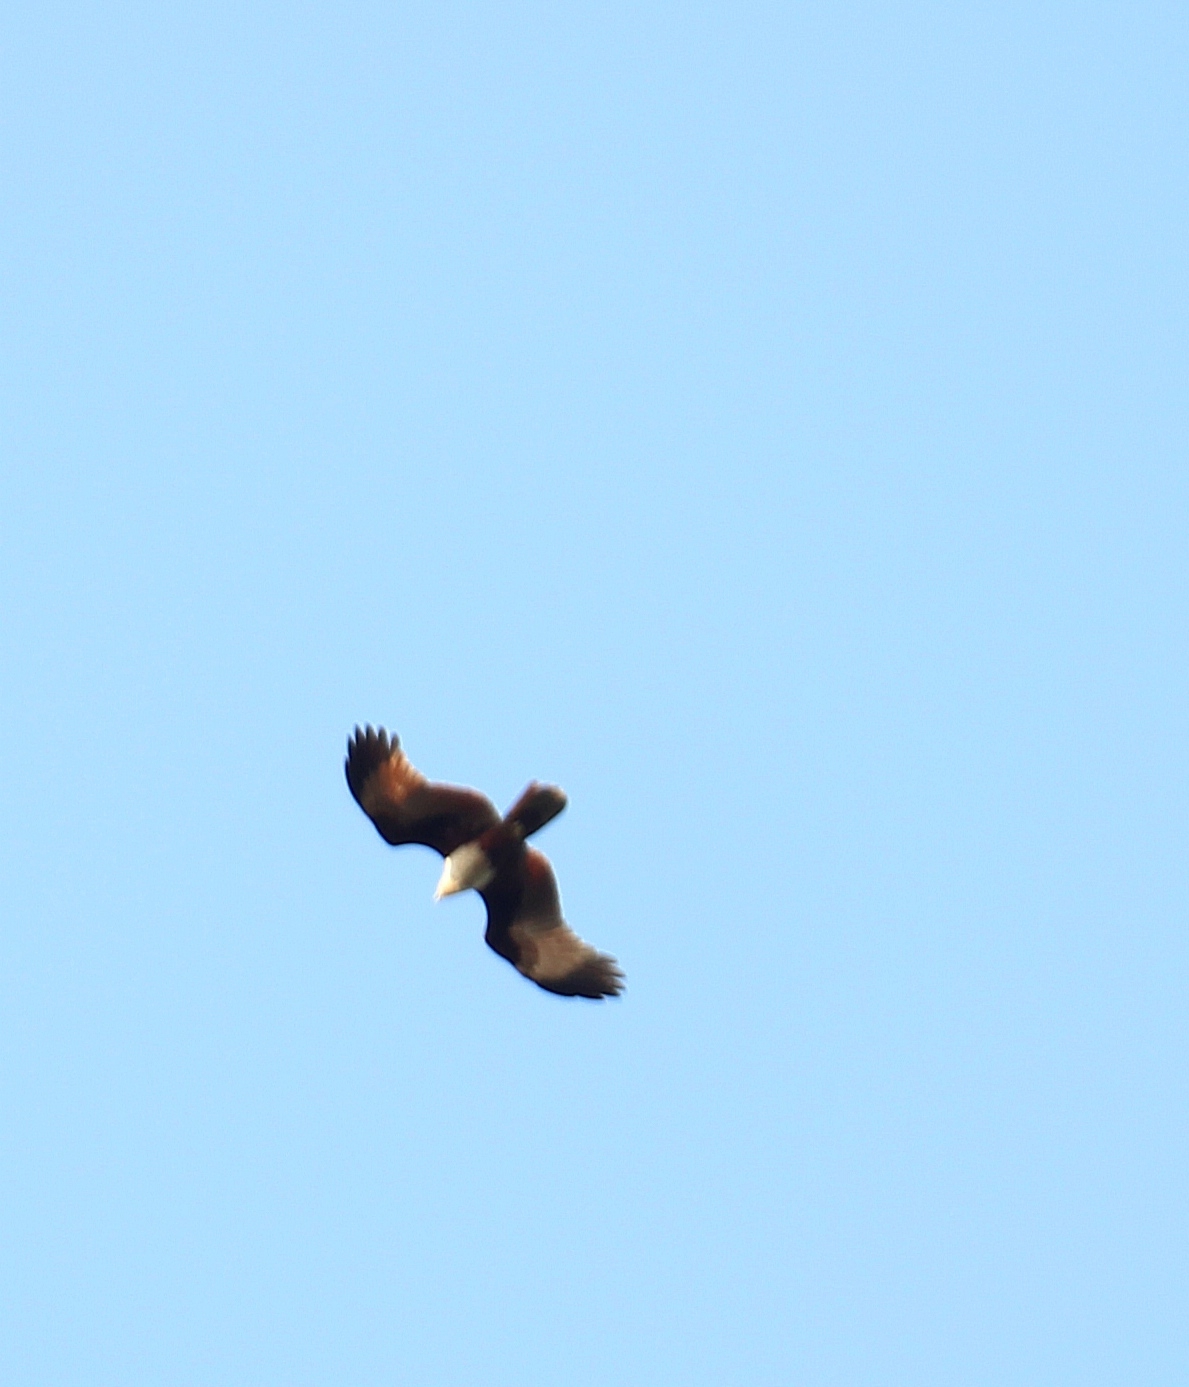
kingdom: Animalia
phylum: Chordata
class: Aves
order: Accipitriformes
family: Accipitridae
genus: Haliastur
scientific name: Haliastur indus
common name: Brahminy kite
